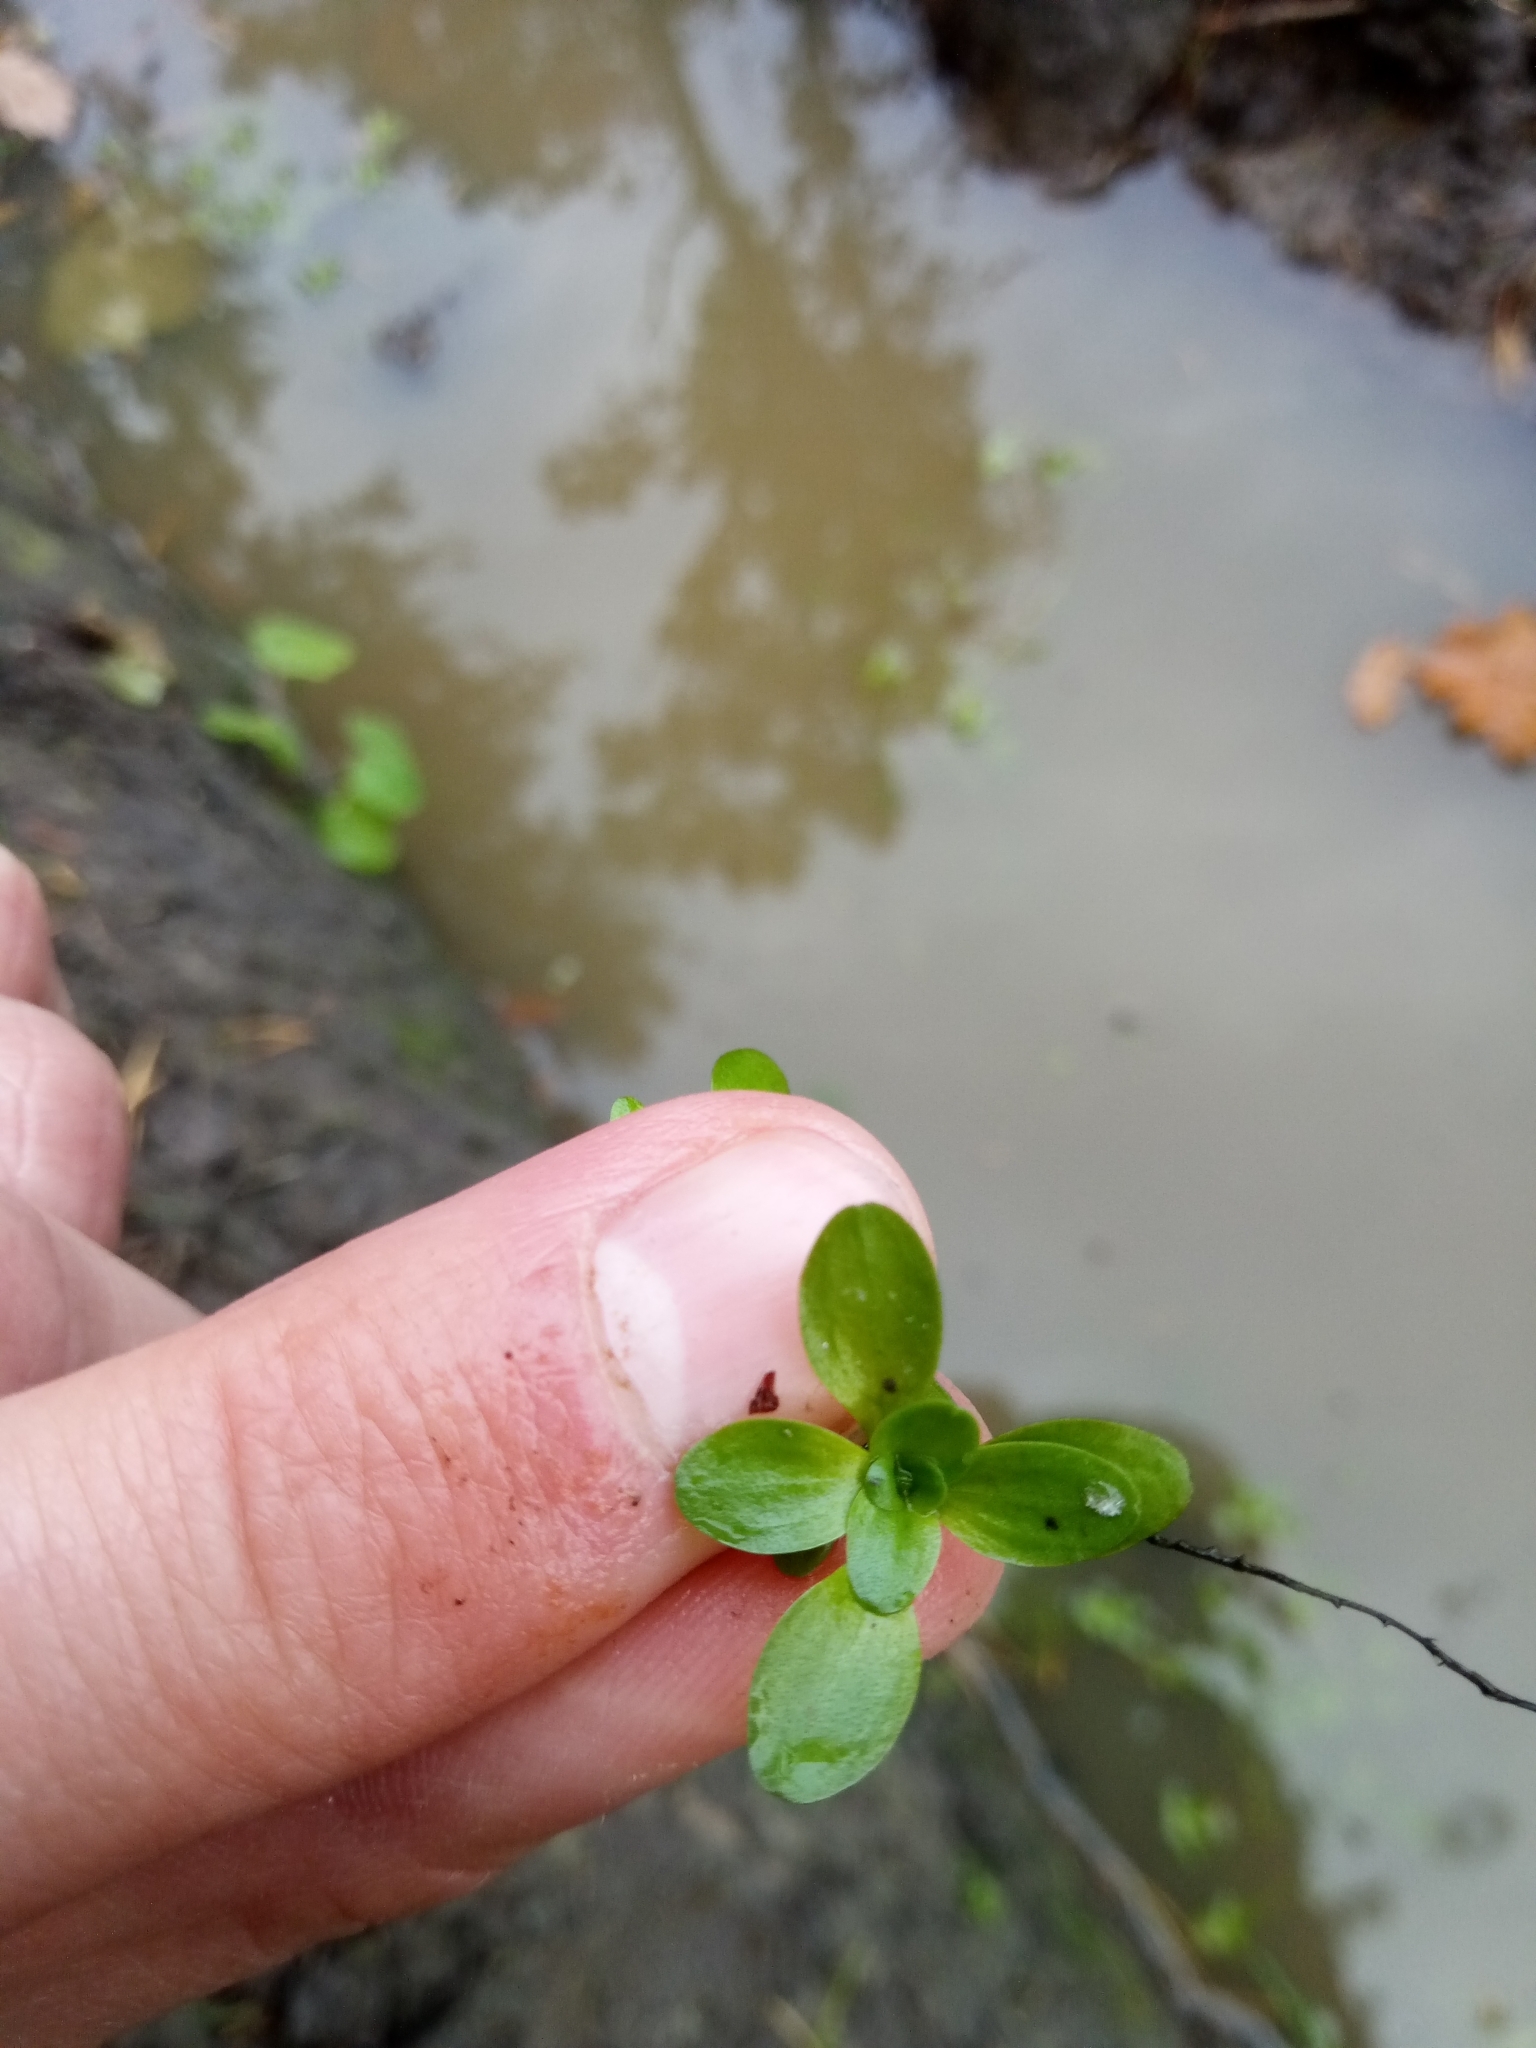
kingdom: Plantae
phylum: Tracheophyta
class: Magnoliopsida
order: Lamiales
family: Plantaginaceae
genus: Callitriche
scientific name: Callitriche stagnalis
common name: Common water-starwort
